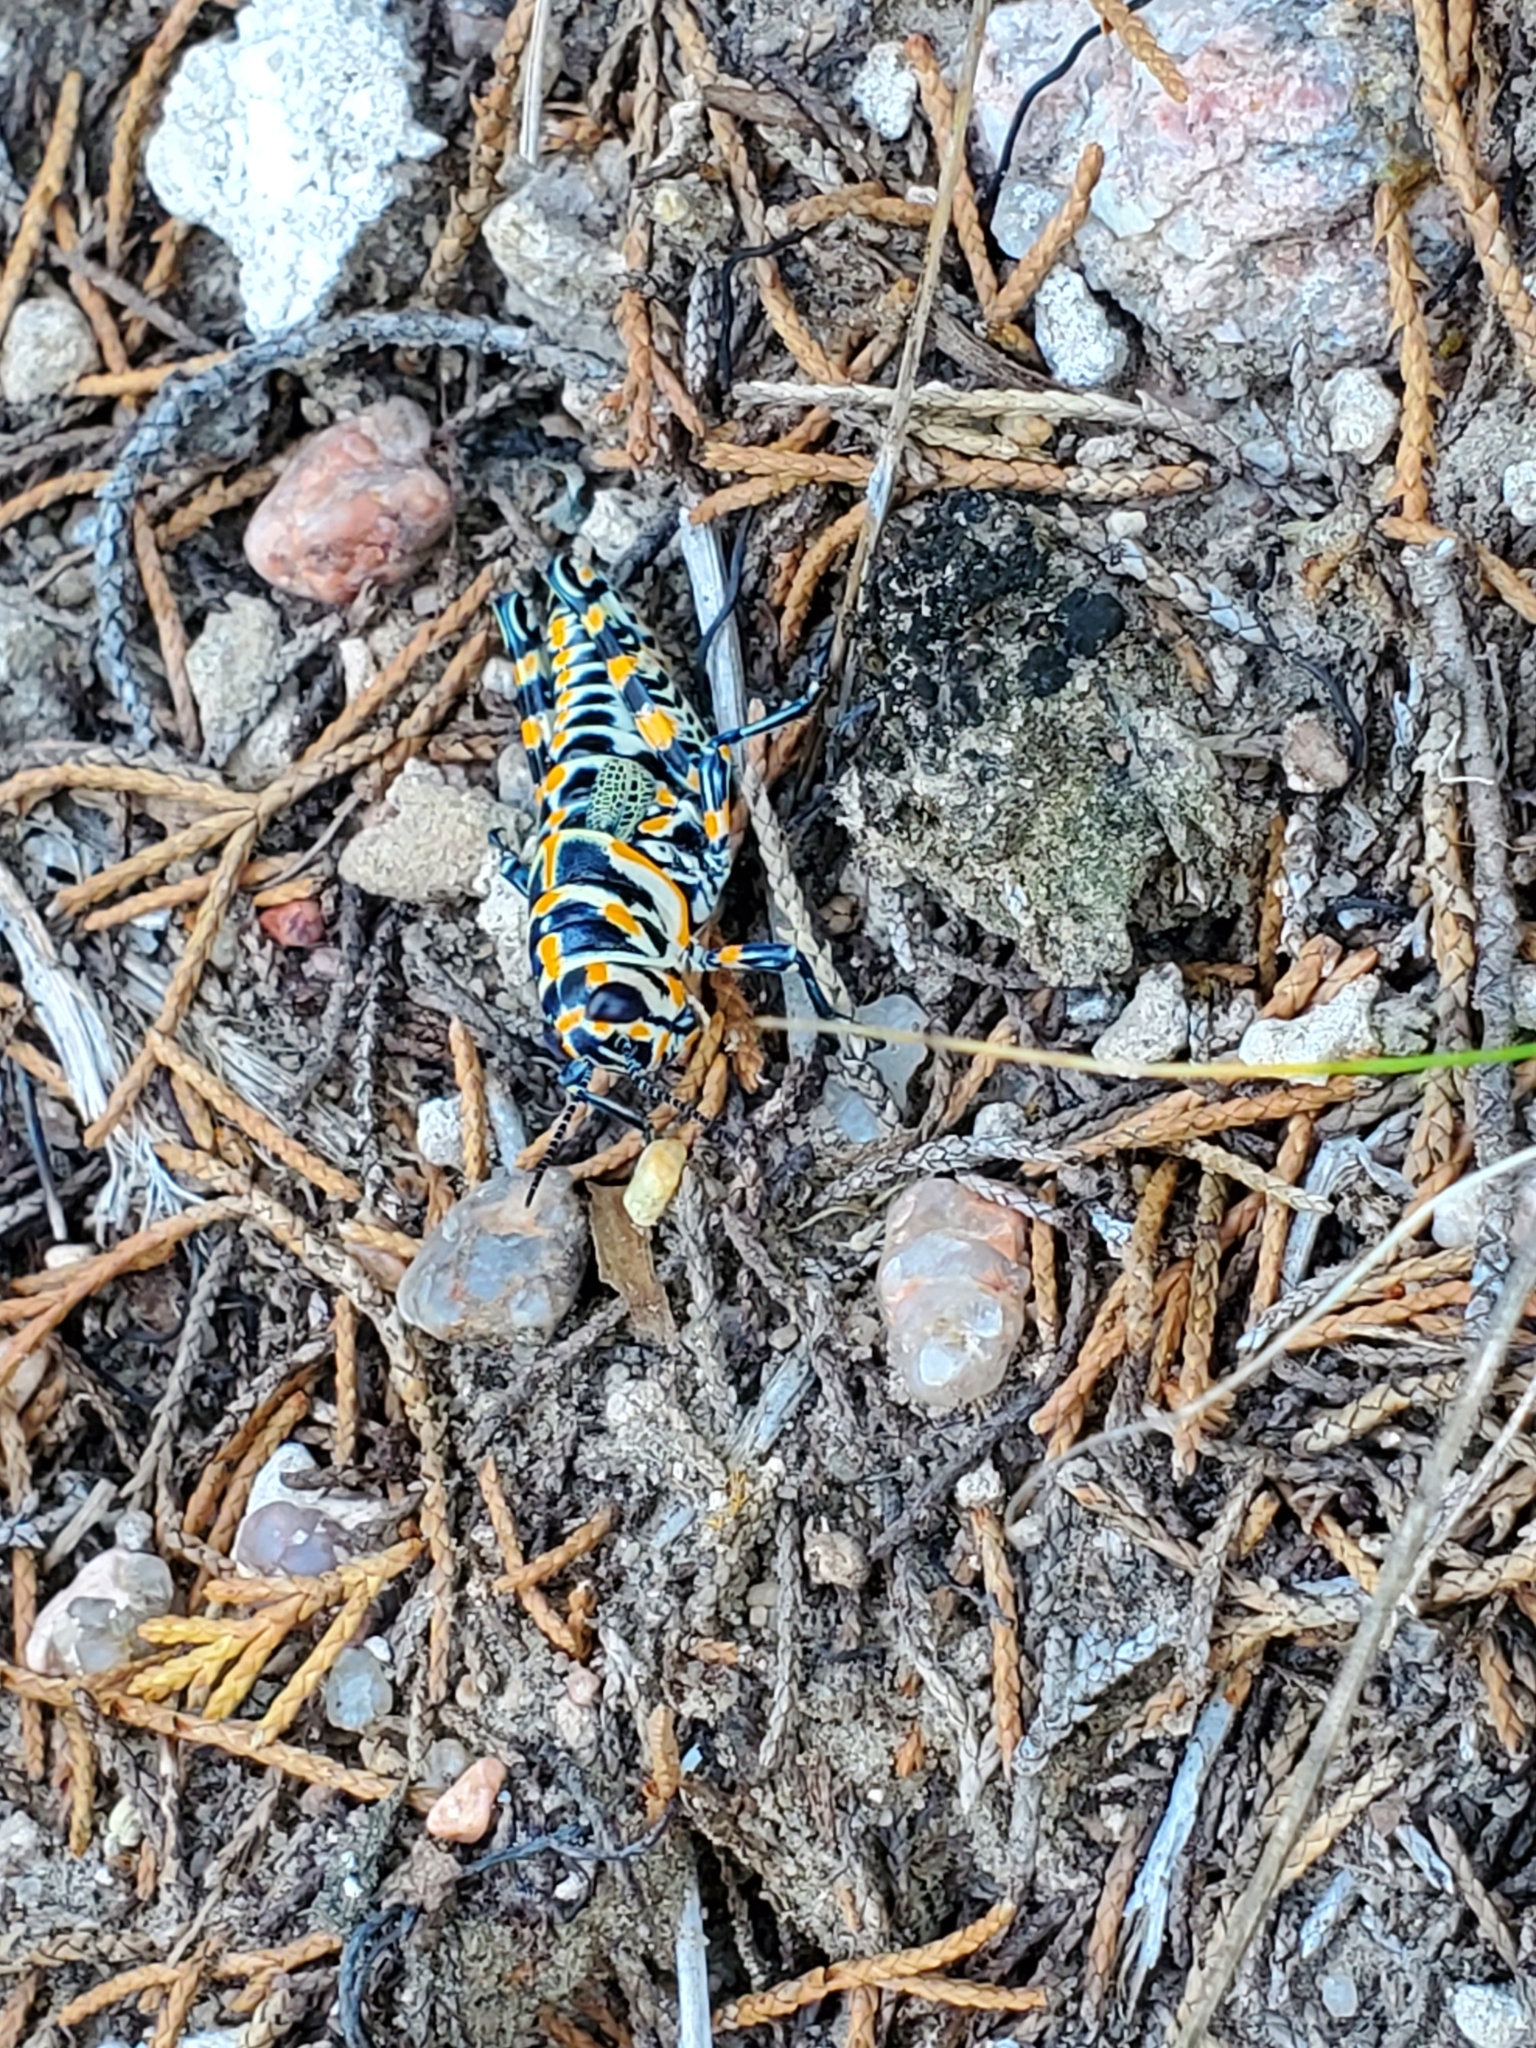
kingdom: Animalia
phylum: Arthropoda
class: Insecta
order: Orthoptera
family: Acrididae
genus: Dactylotum
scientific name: Dactylotum bicolor
